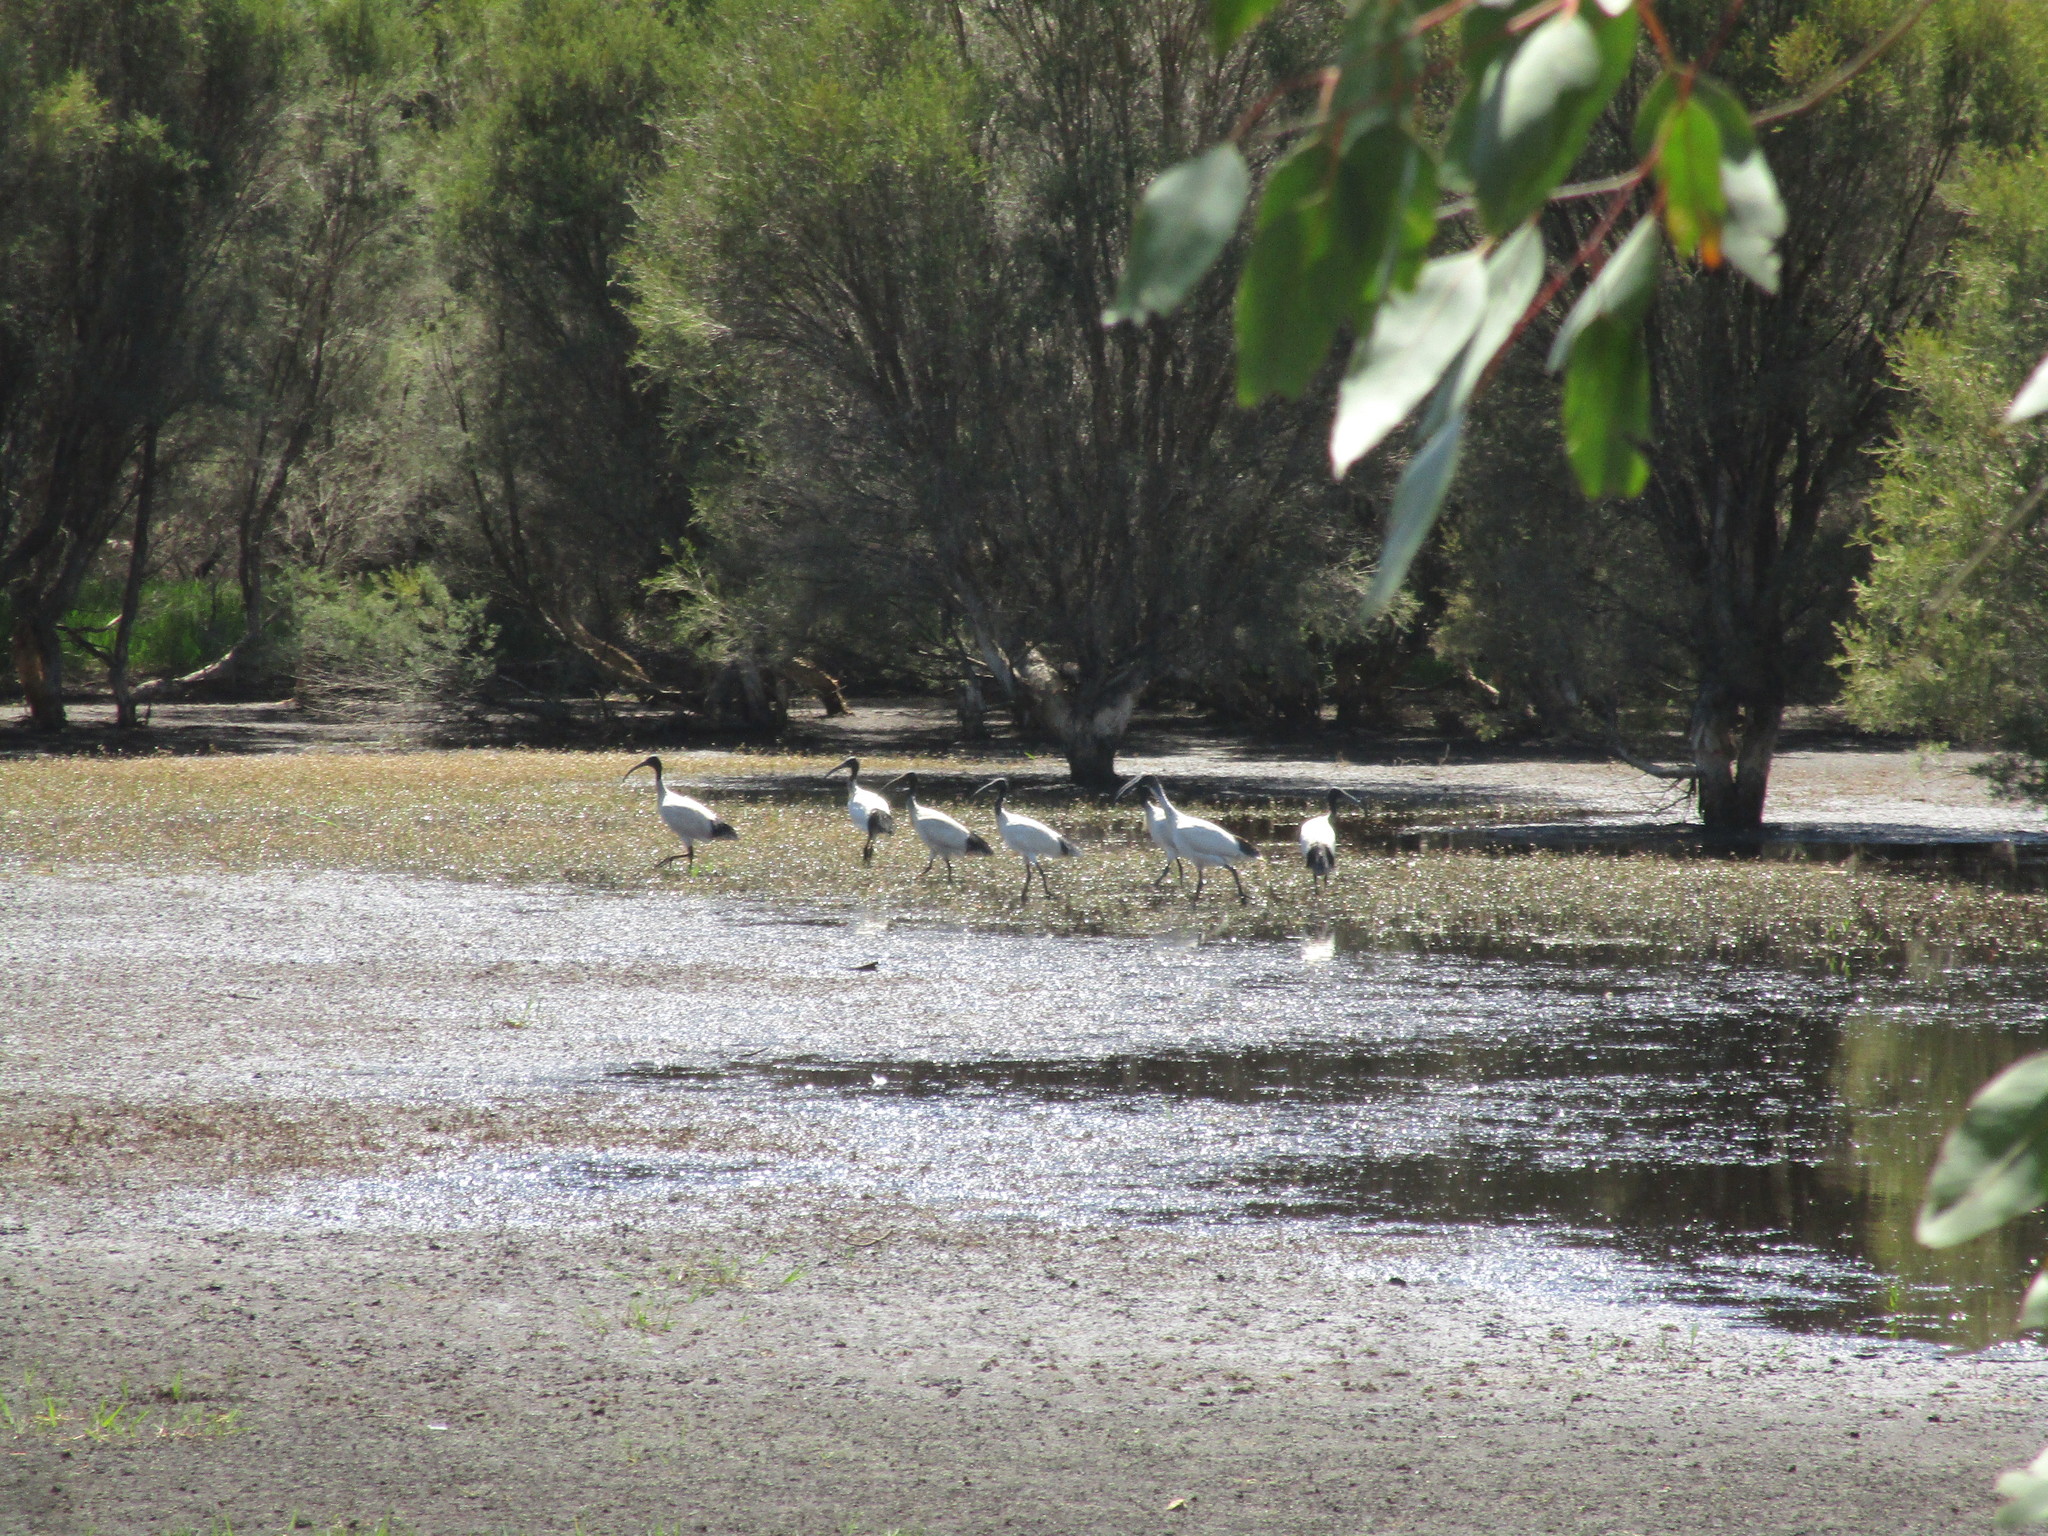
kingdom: Animalia
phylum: Chordata
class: Aves
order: Pelecaniformes
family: Threskiornithidae
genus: Threskiornis
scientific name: Threskiornis molucca
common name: Australian white ibis
